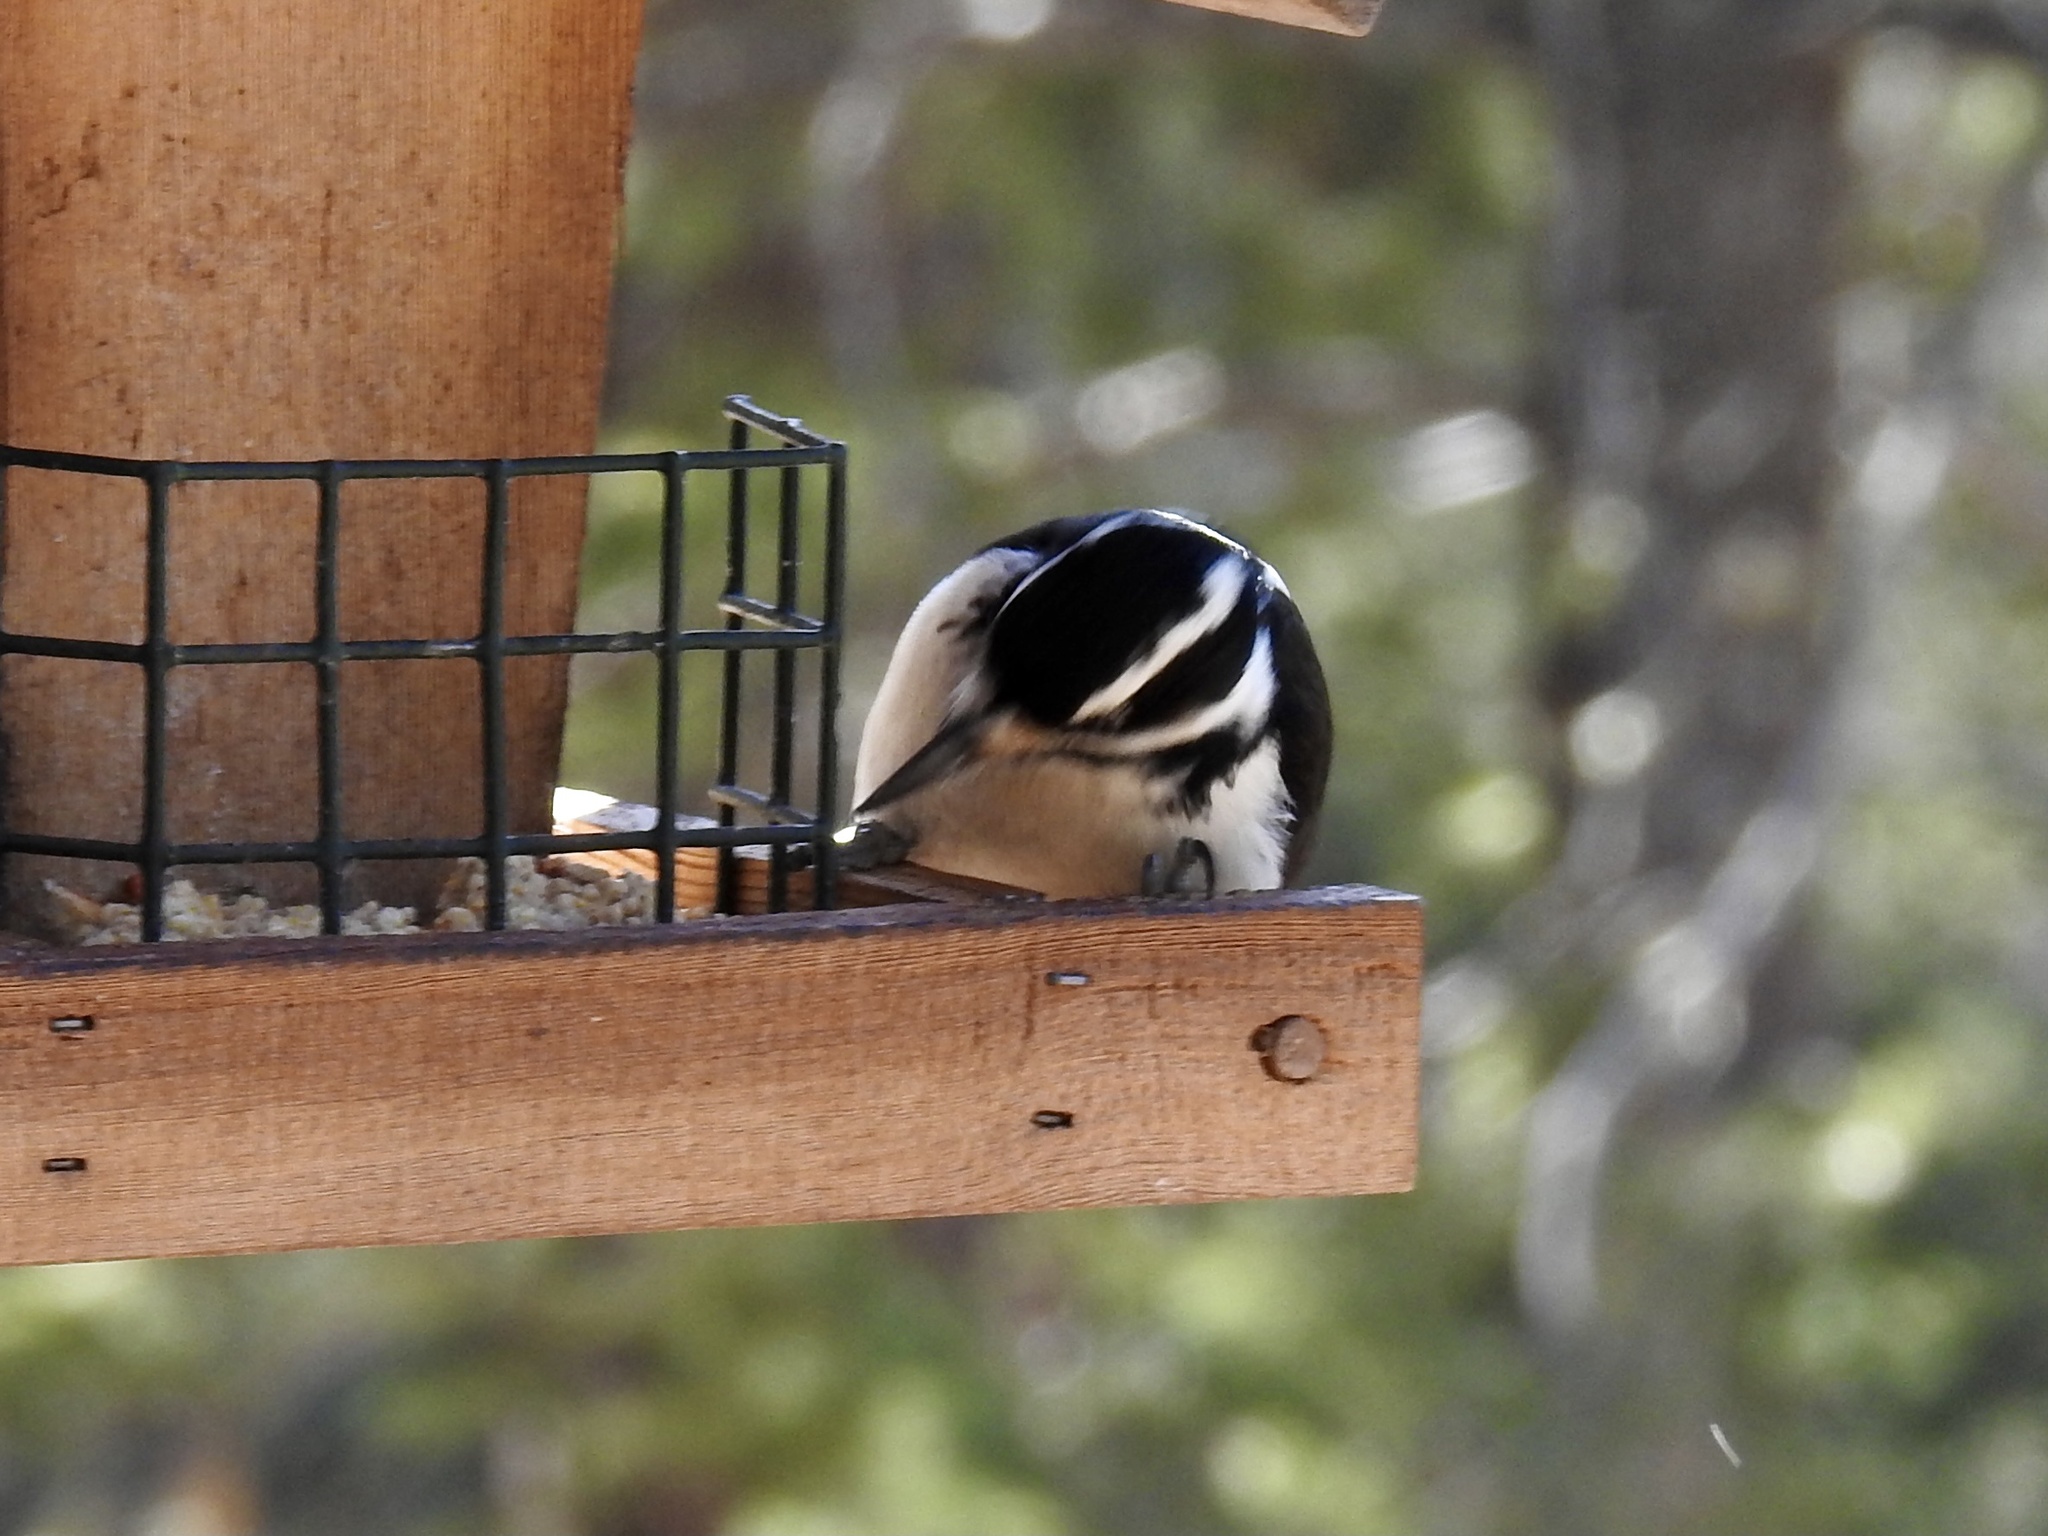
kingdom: Animalia
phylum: Chordata
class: Aves
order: Piciformes
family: Picidae
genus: Leuconotopicus
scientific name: Leuconotopicus villosus
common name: Hairy woodpecker
